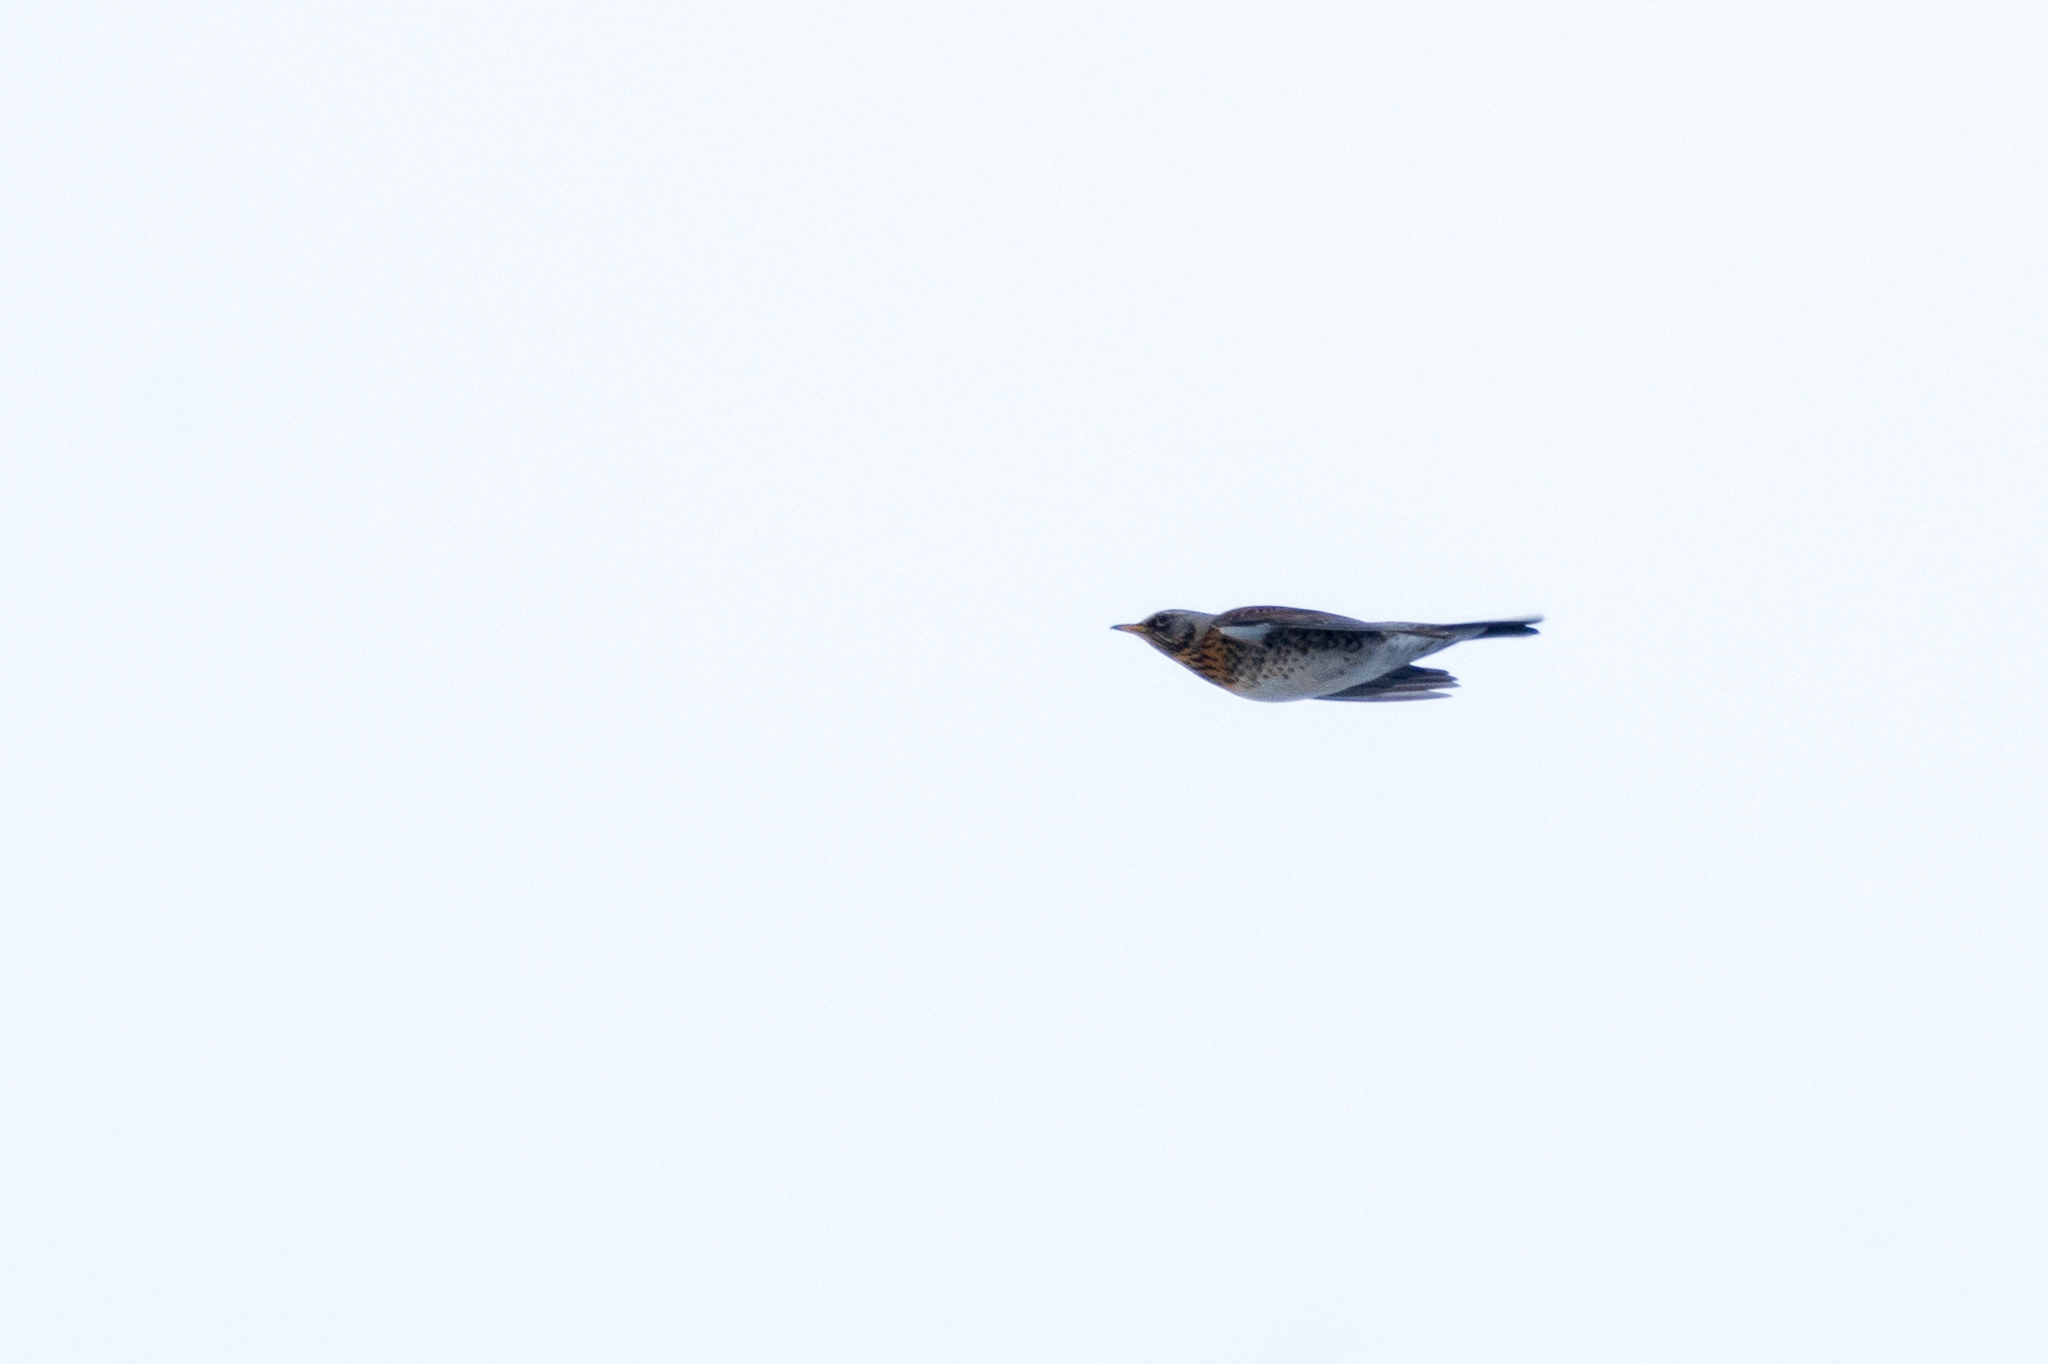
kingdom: Animalia
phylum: Chordata
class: Aves
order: Passeriformes
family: Turdidae
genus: Turdus
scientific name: Turdus pilaris
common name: Fieldfare
